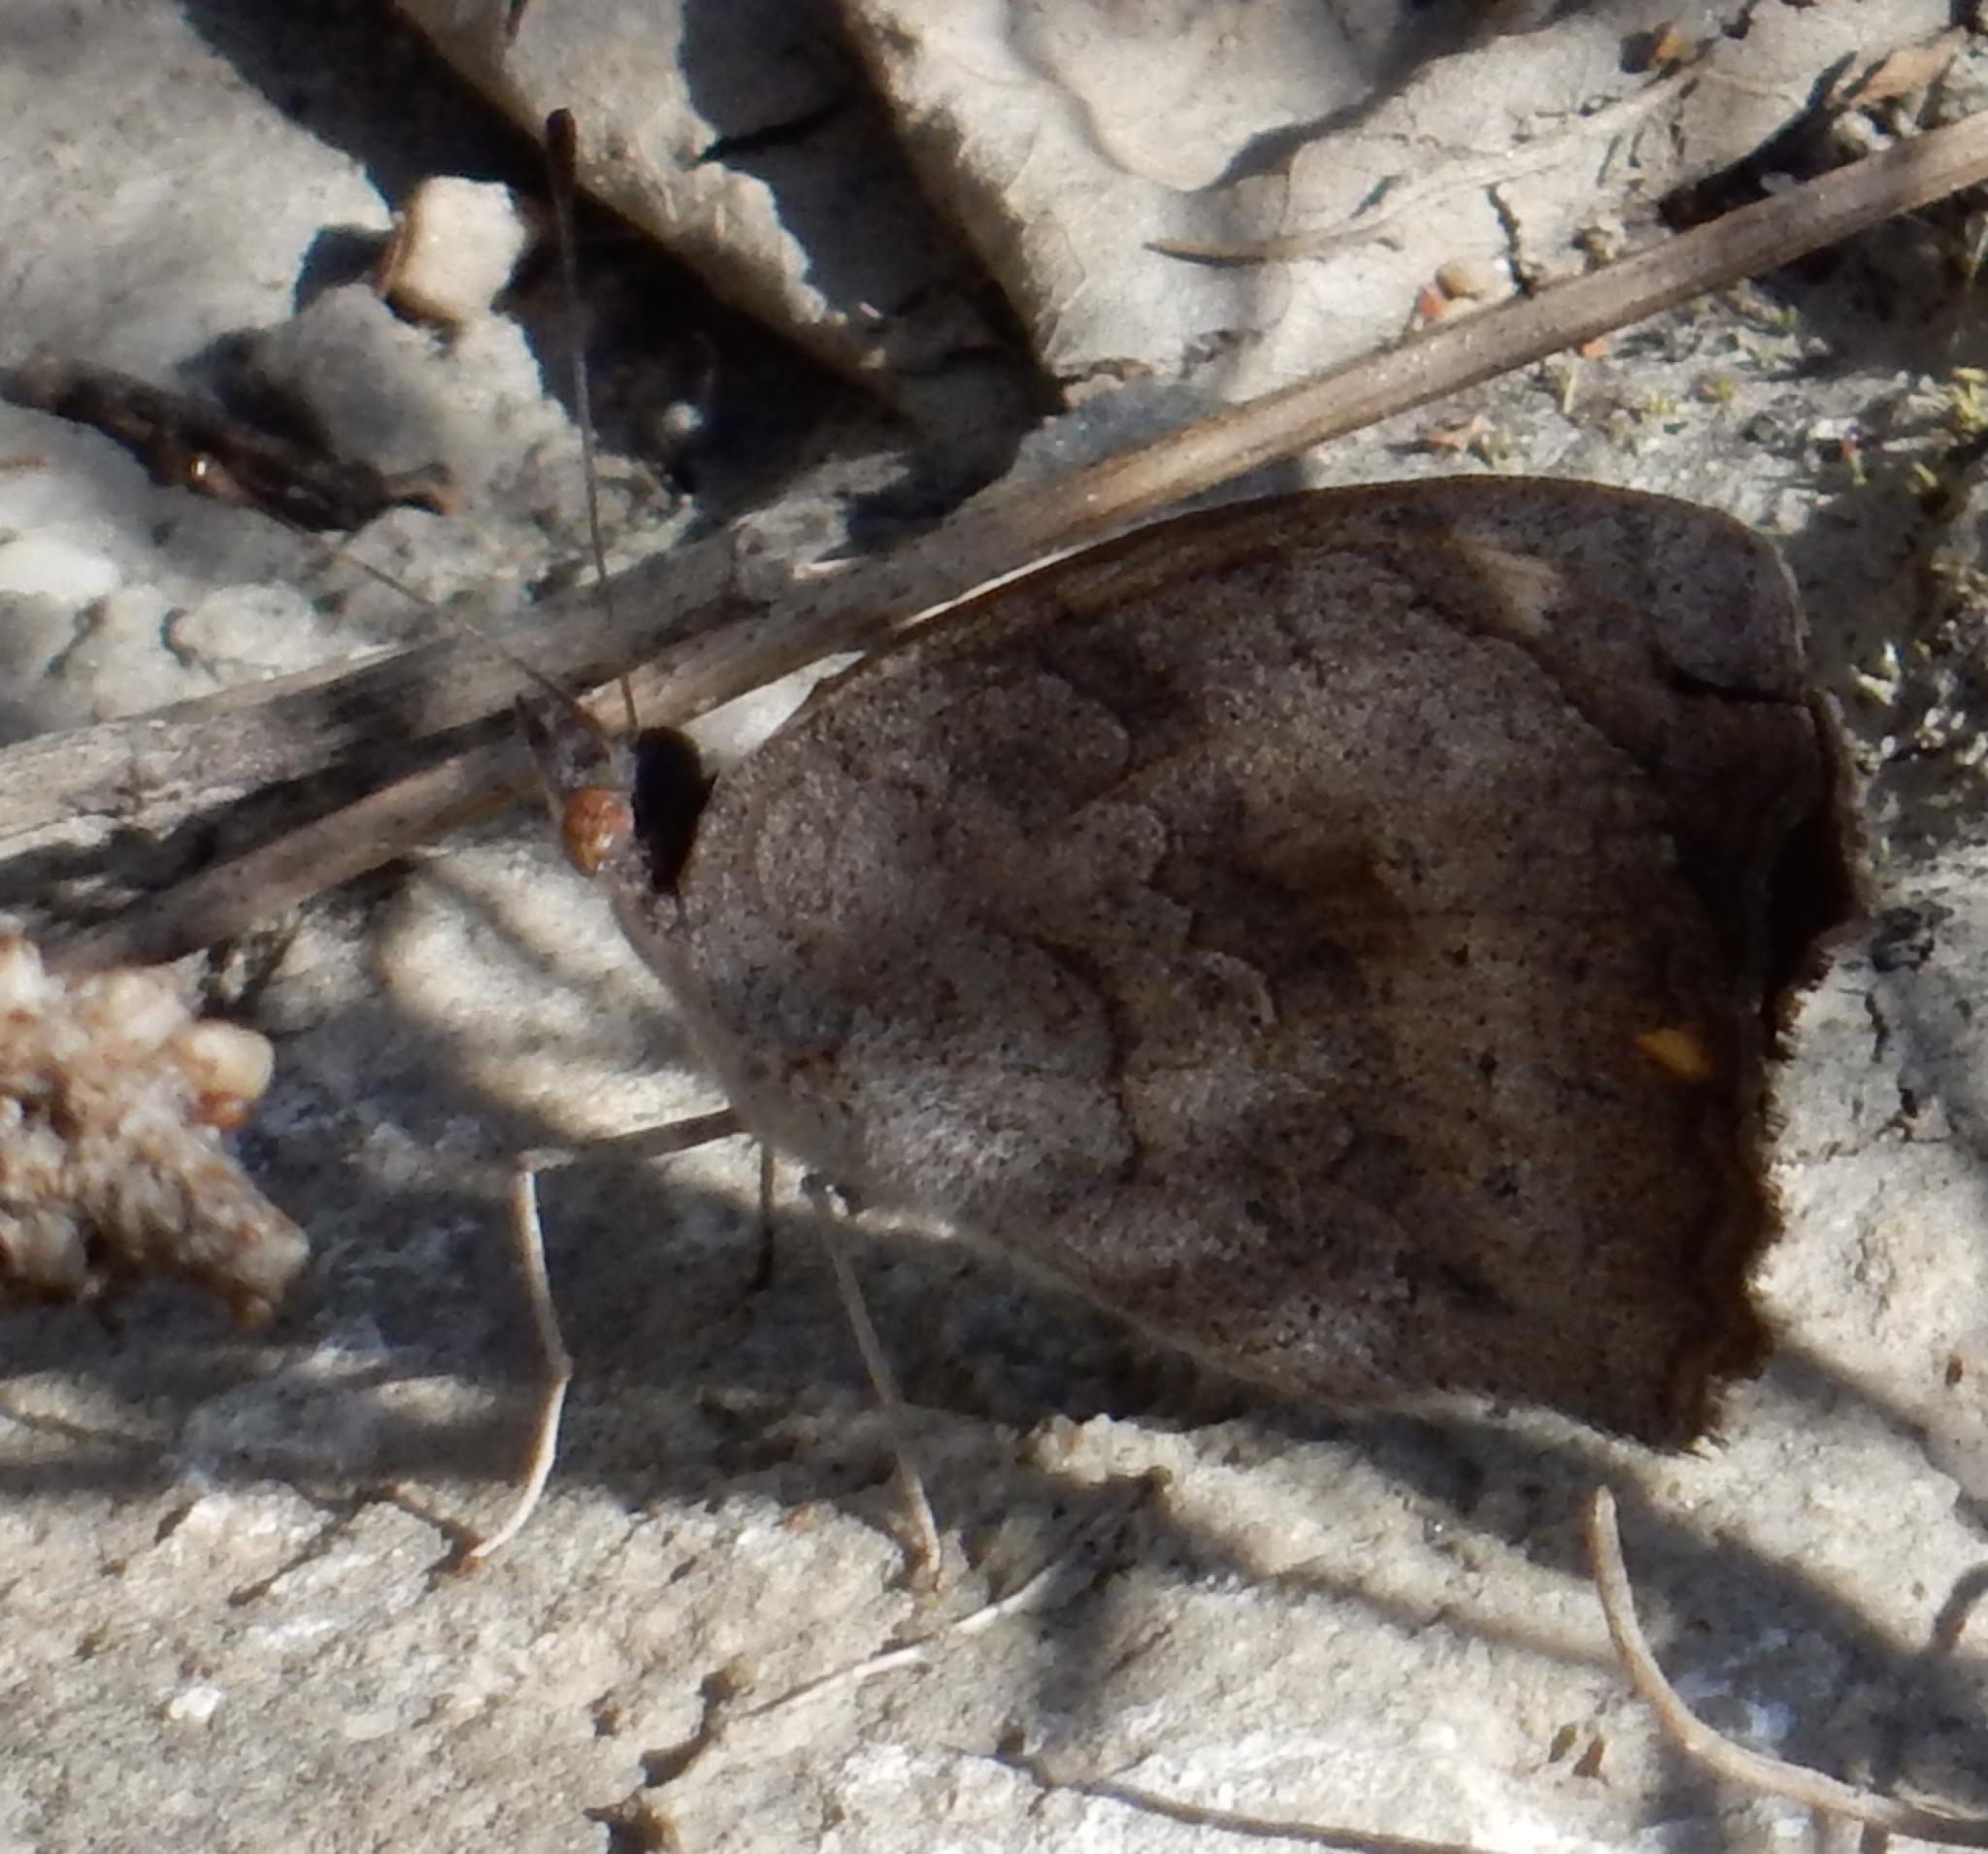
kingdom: Animalia
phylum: Arthropoda
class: Insecta
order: Lepidoptera
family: Nymphalidae
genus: Junonia
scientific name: Junonia hierta
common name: Yellow pansy
